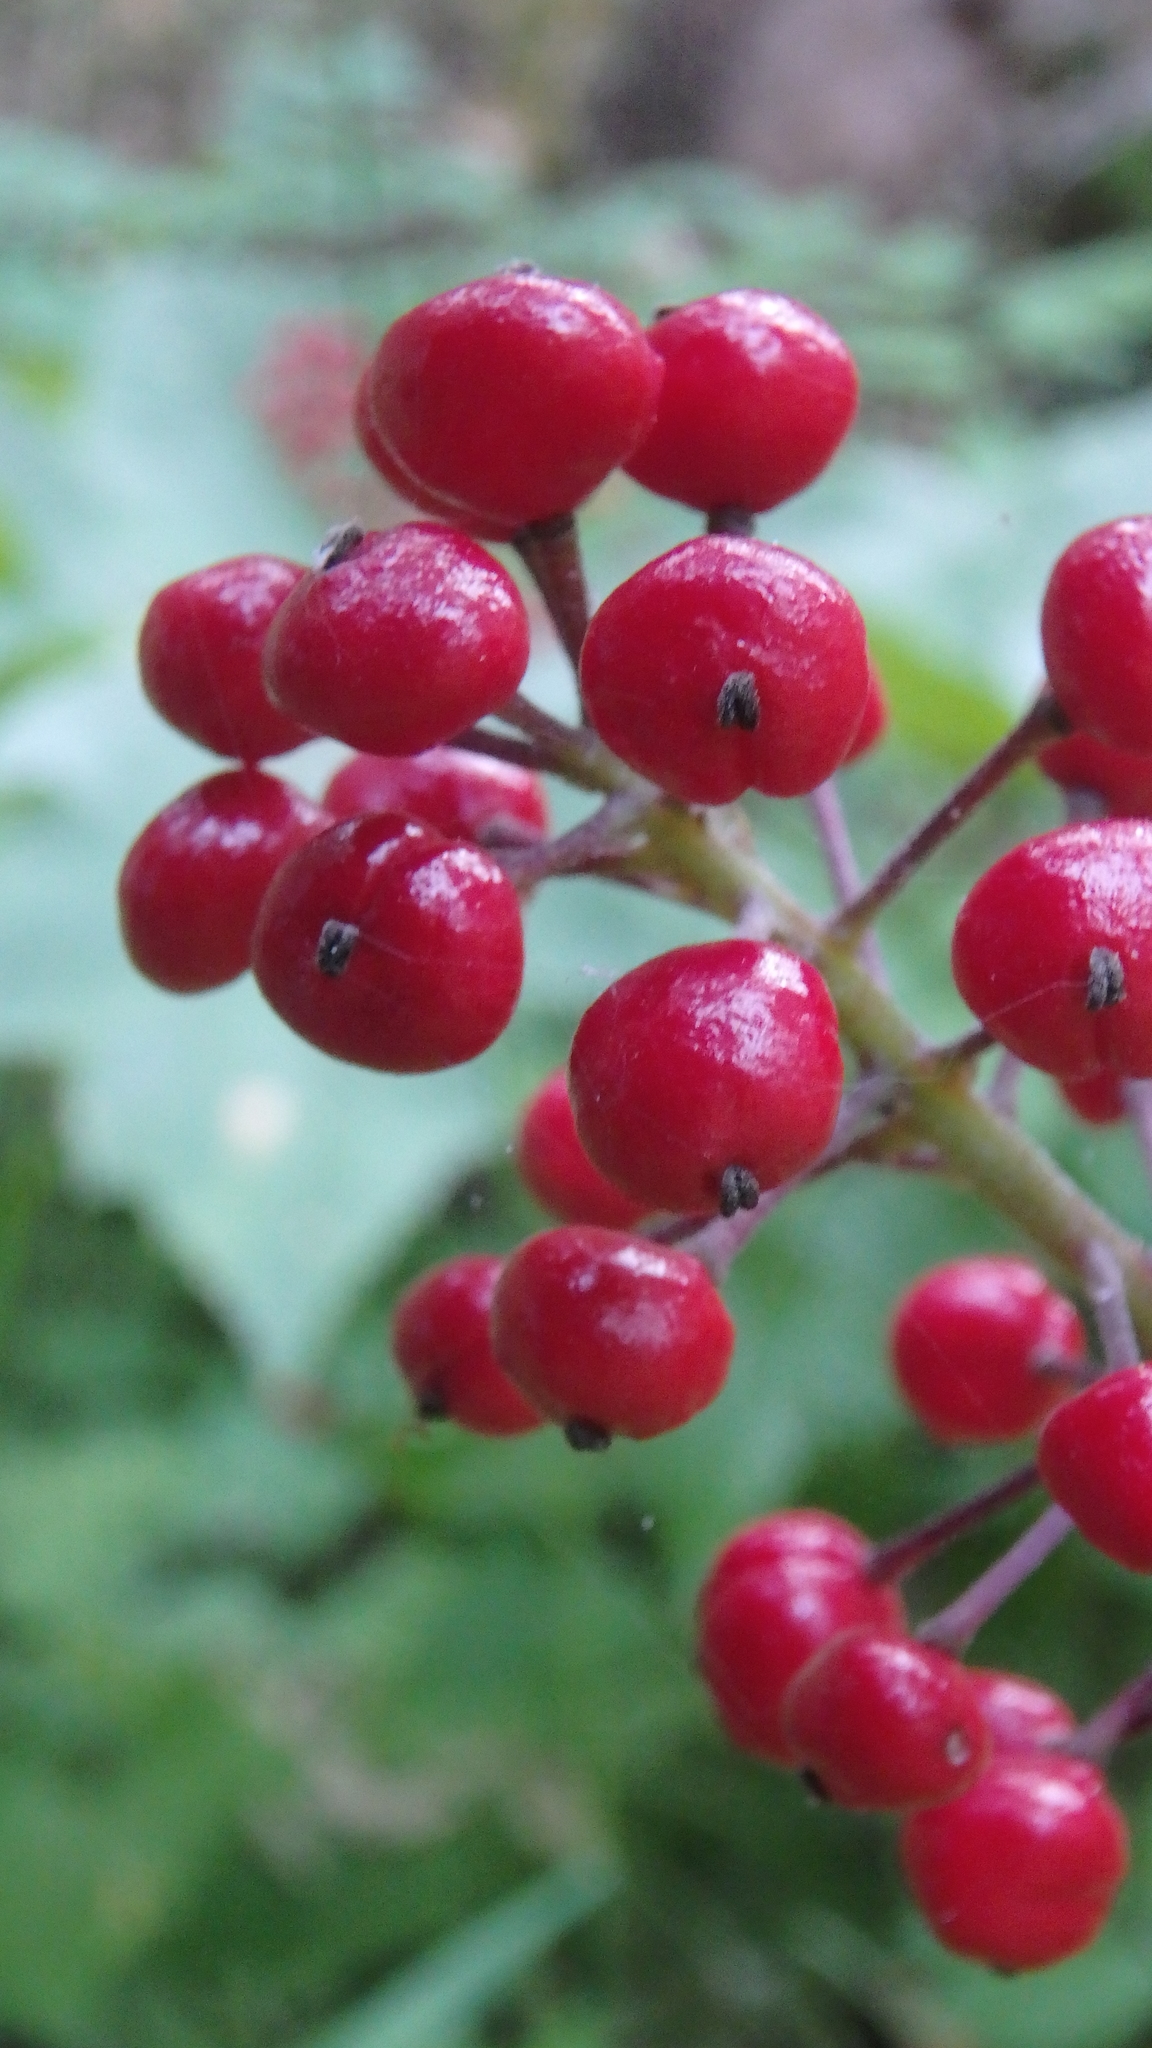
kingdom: Plantae
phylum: Tracheophyta
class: Magnoliopsida
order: Ranunculales
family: Ranunculaceae
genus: Actaea
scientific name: Actaea rubra
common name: Red baneberry
